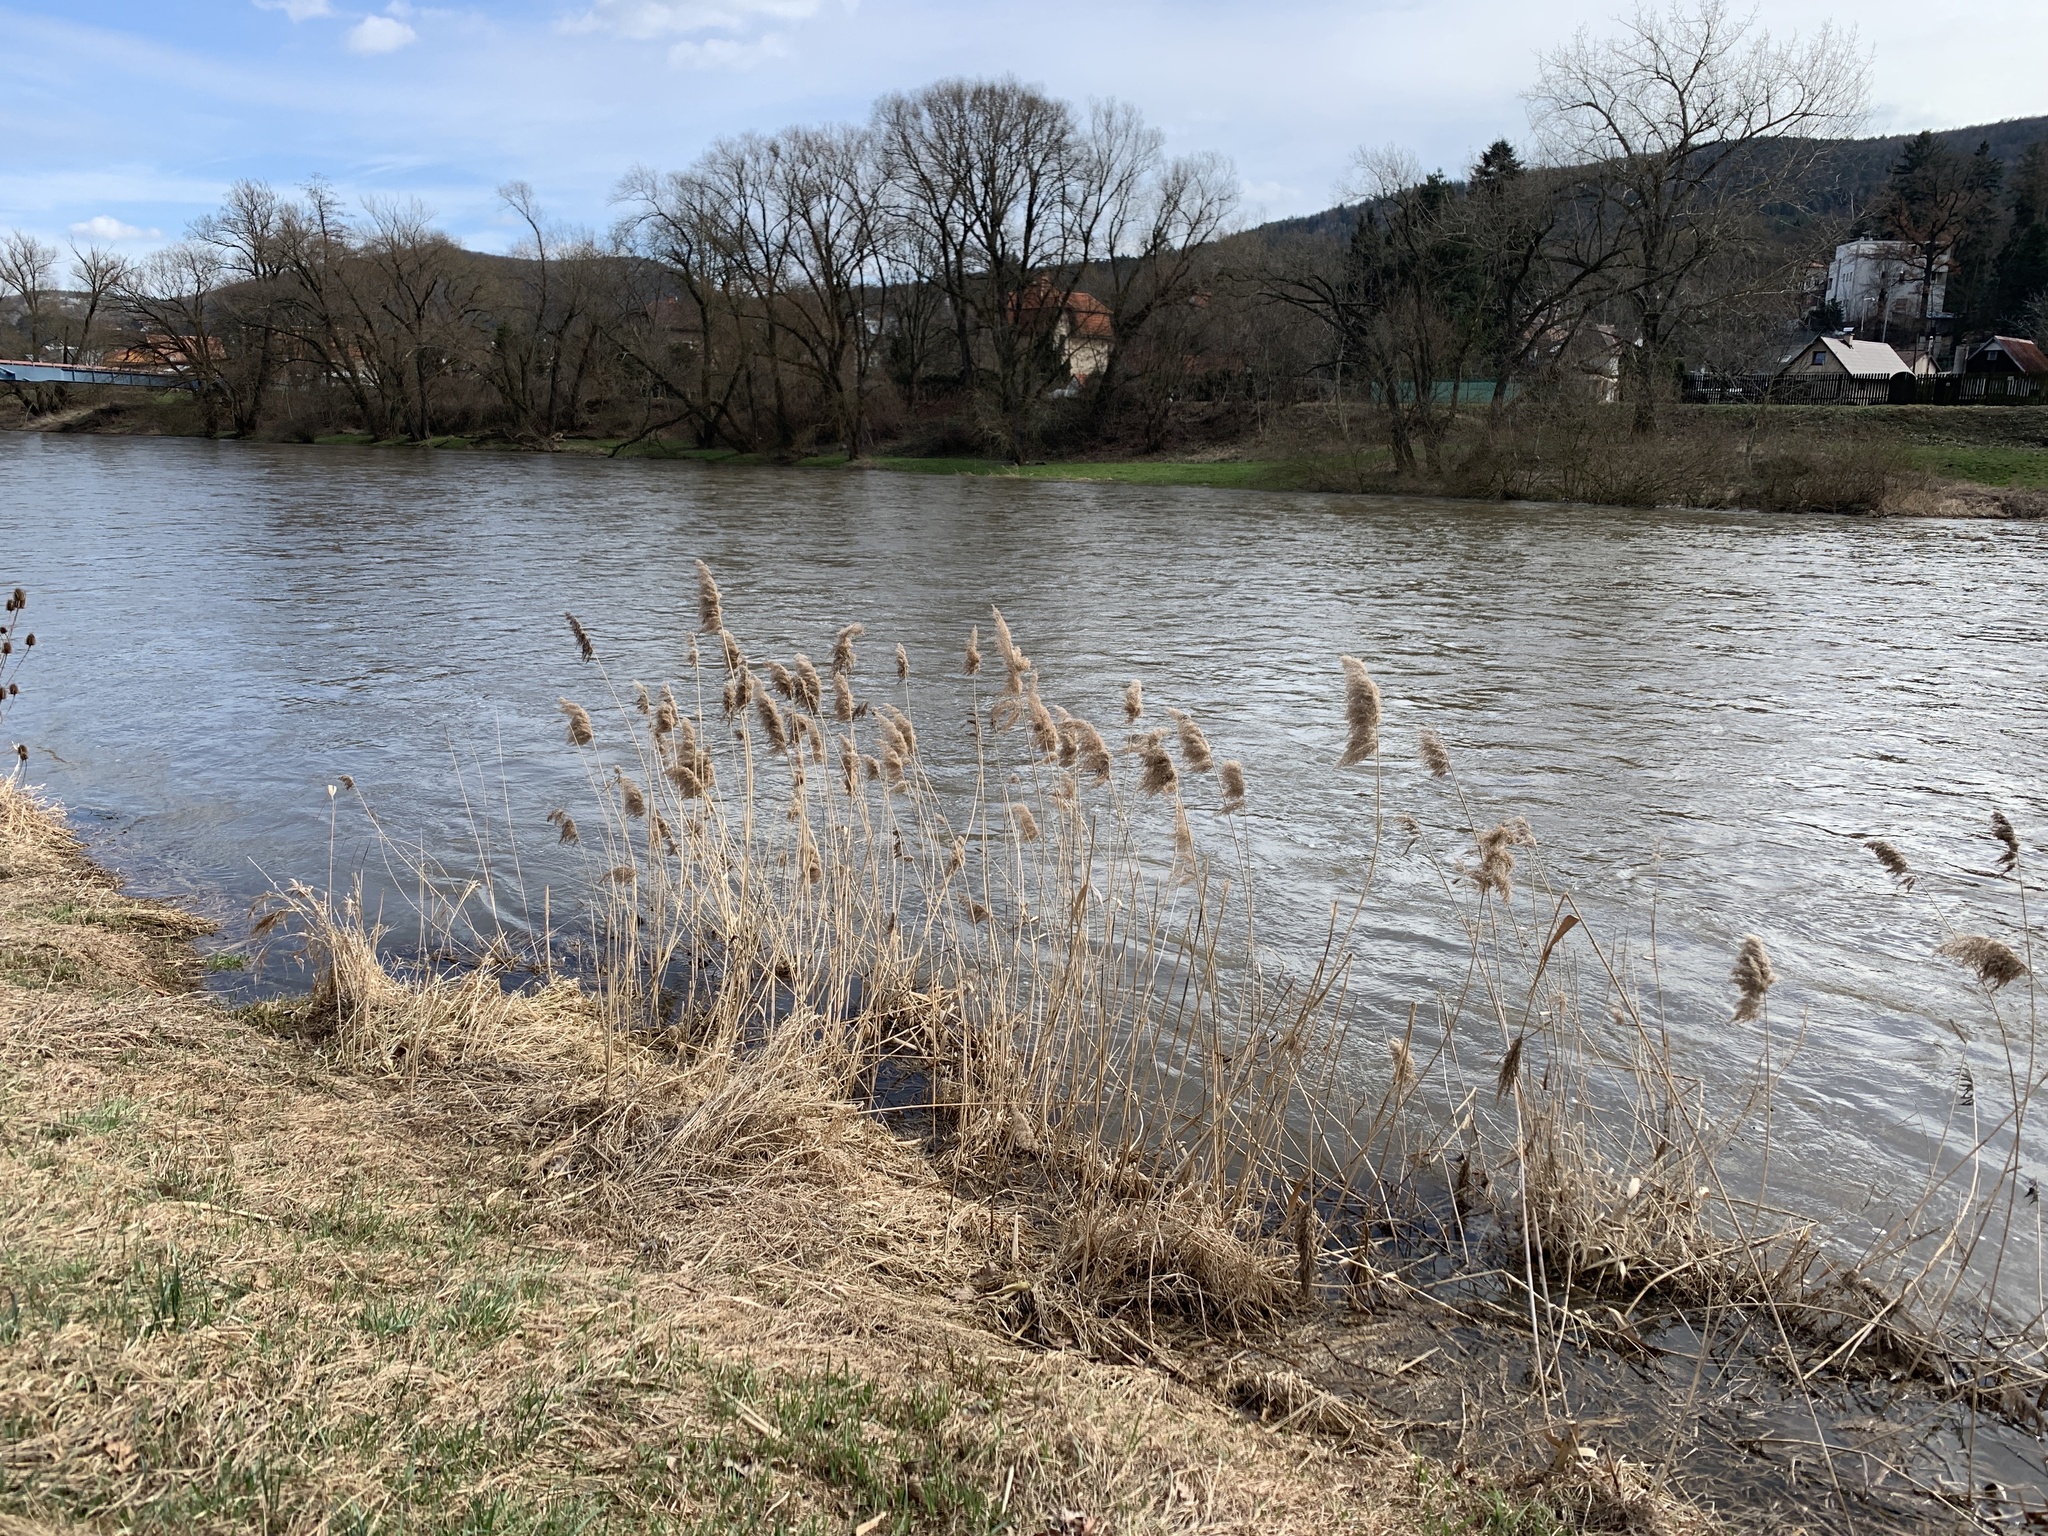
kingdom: Plantae
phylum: Tracheophyta
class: Liliopsida
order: Poales
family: Poaceae
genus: Phragmites
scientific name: Phragmites australis
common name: Common reed
